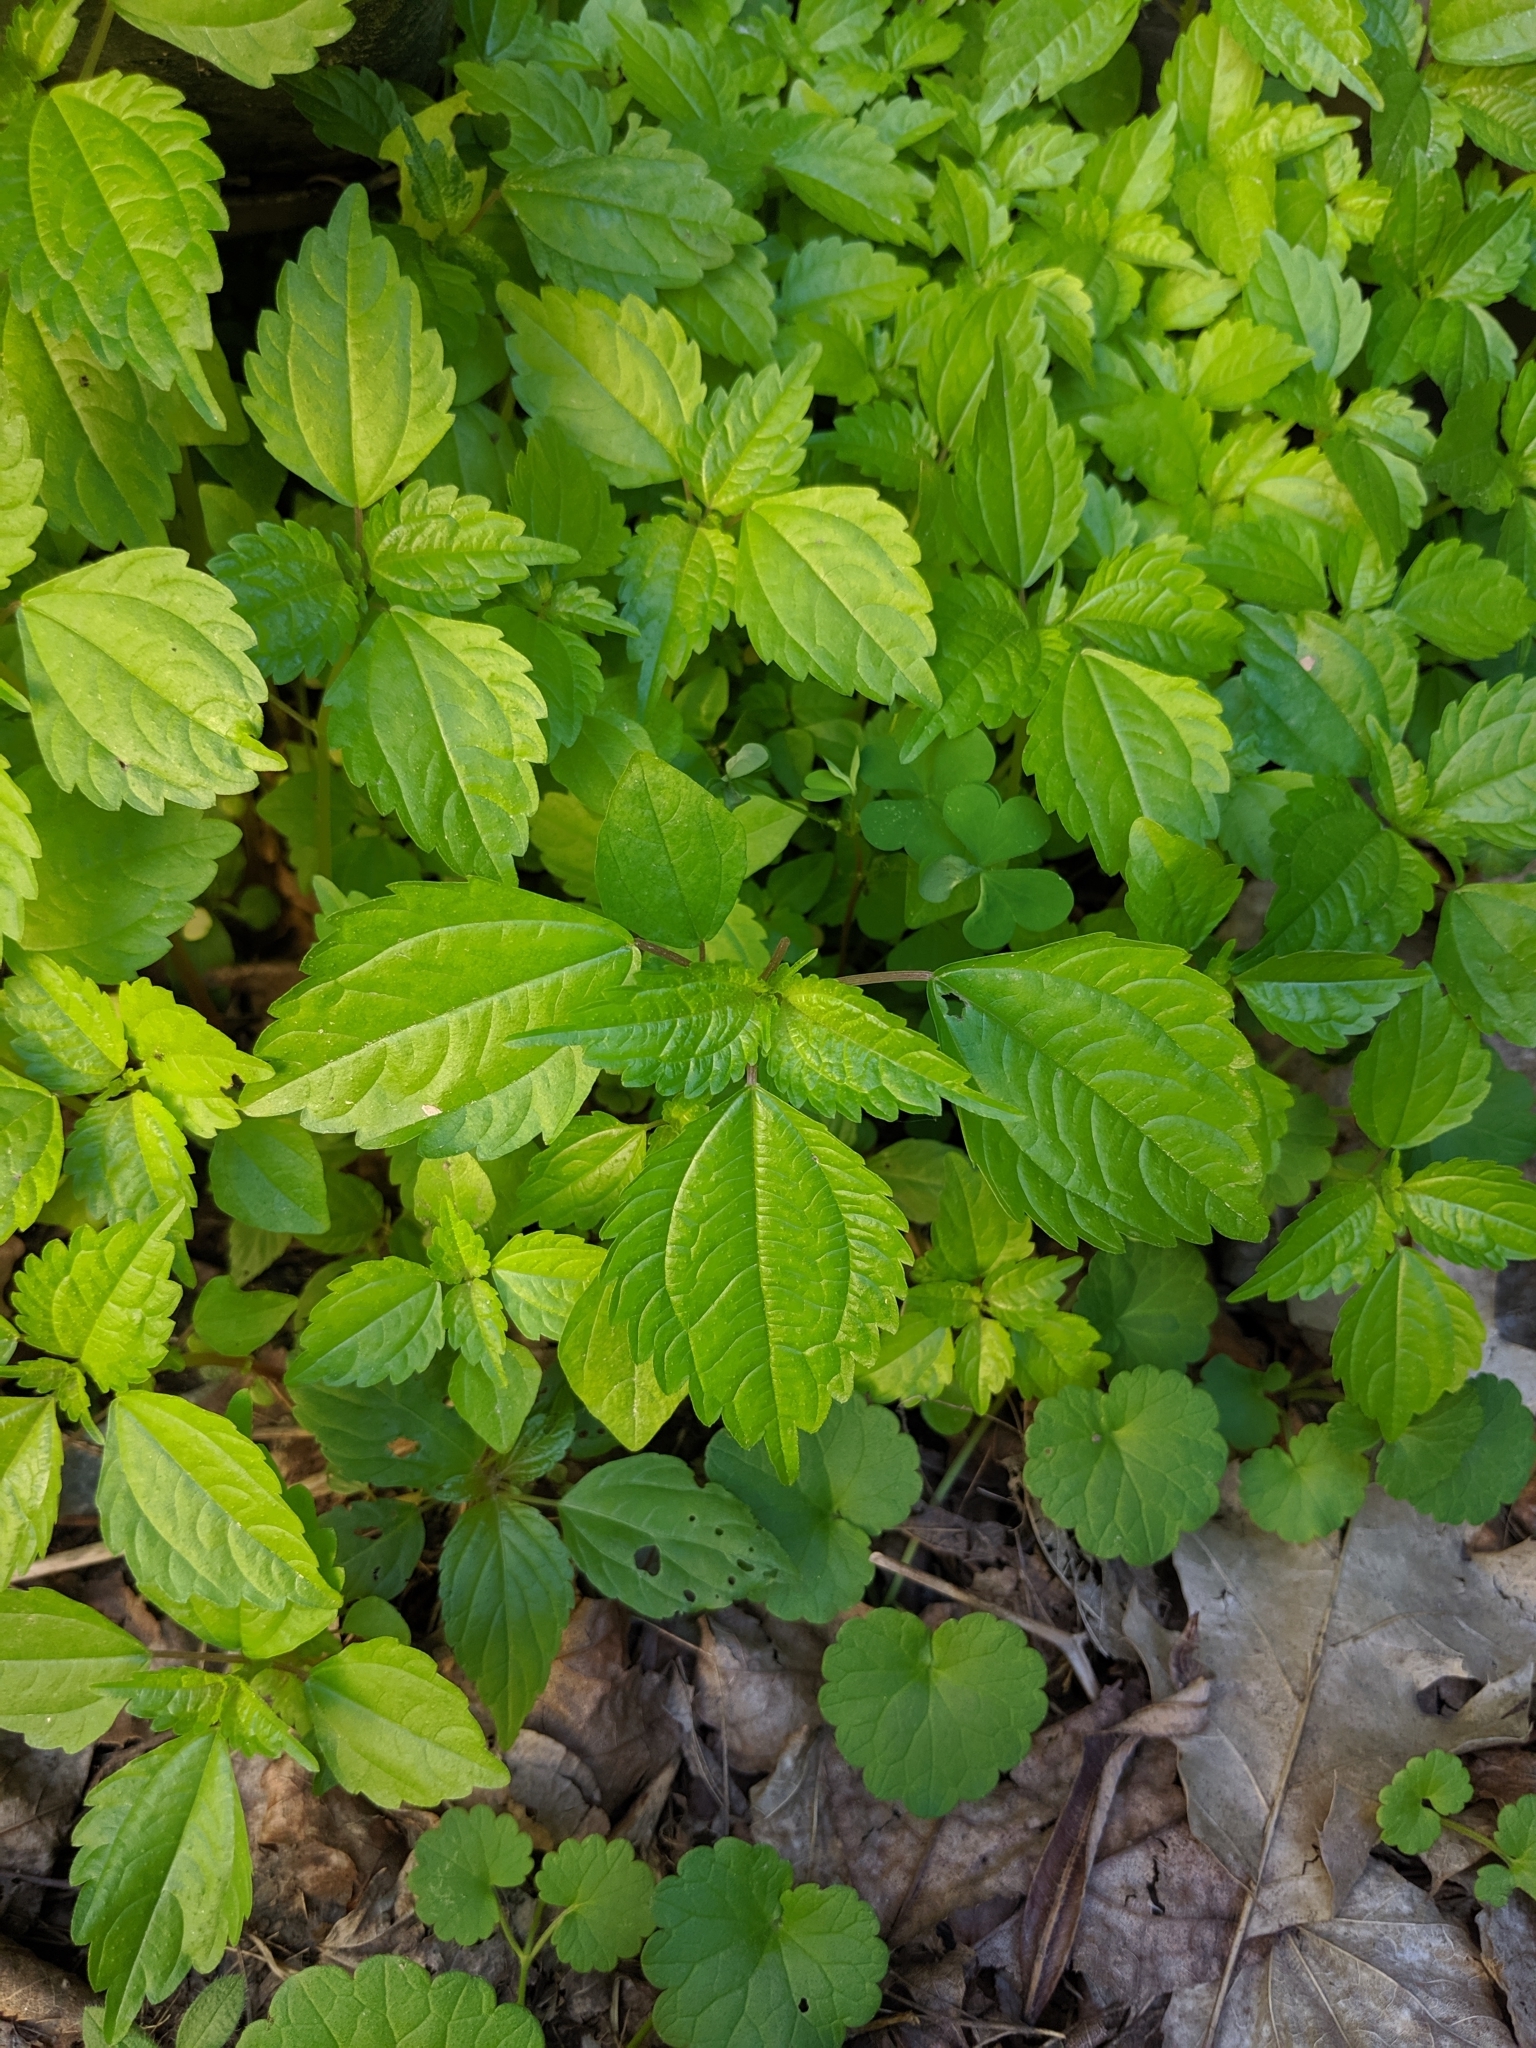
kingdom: Plantae
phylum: Tracheophyta
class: Magnoliopsida
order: Rosales
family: Urticaceae
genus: Pilea
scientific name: Pilea pumila
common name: Clearweed
